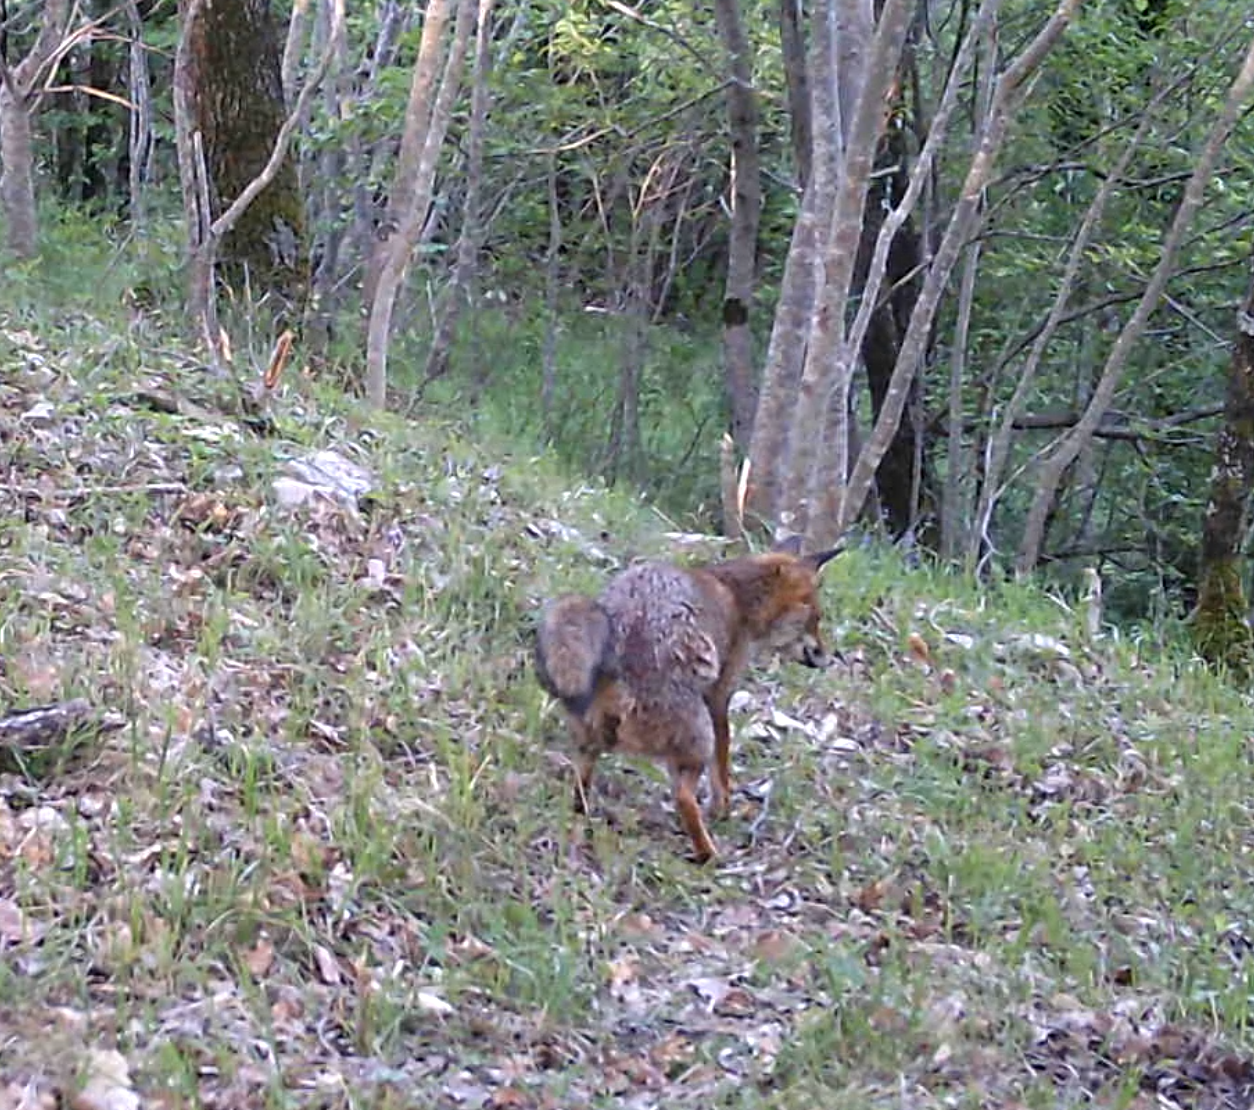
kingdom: Animalia
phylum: Chordata
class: Mammalia
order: Carnivora
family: Canidae
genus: Vulpes
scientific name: Vulpes vulpes
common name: Red fox
